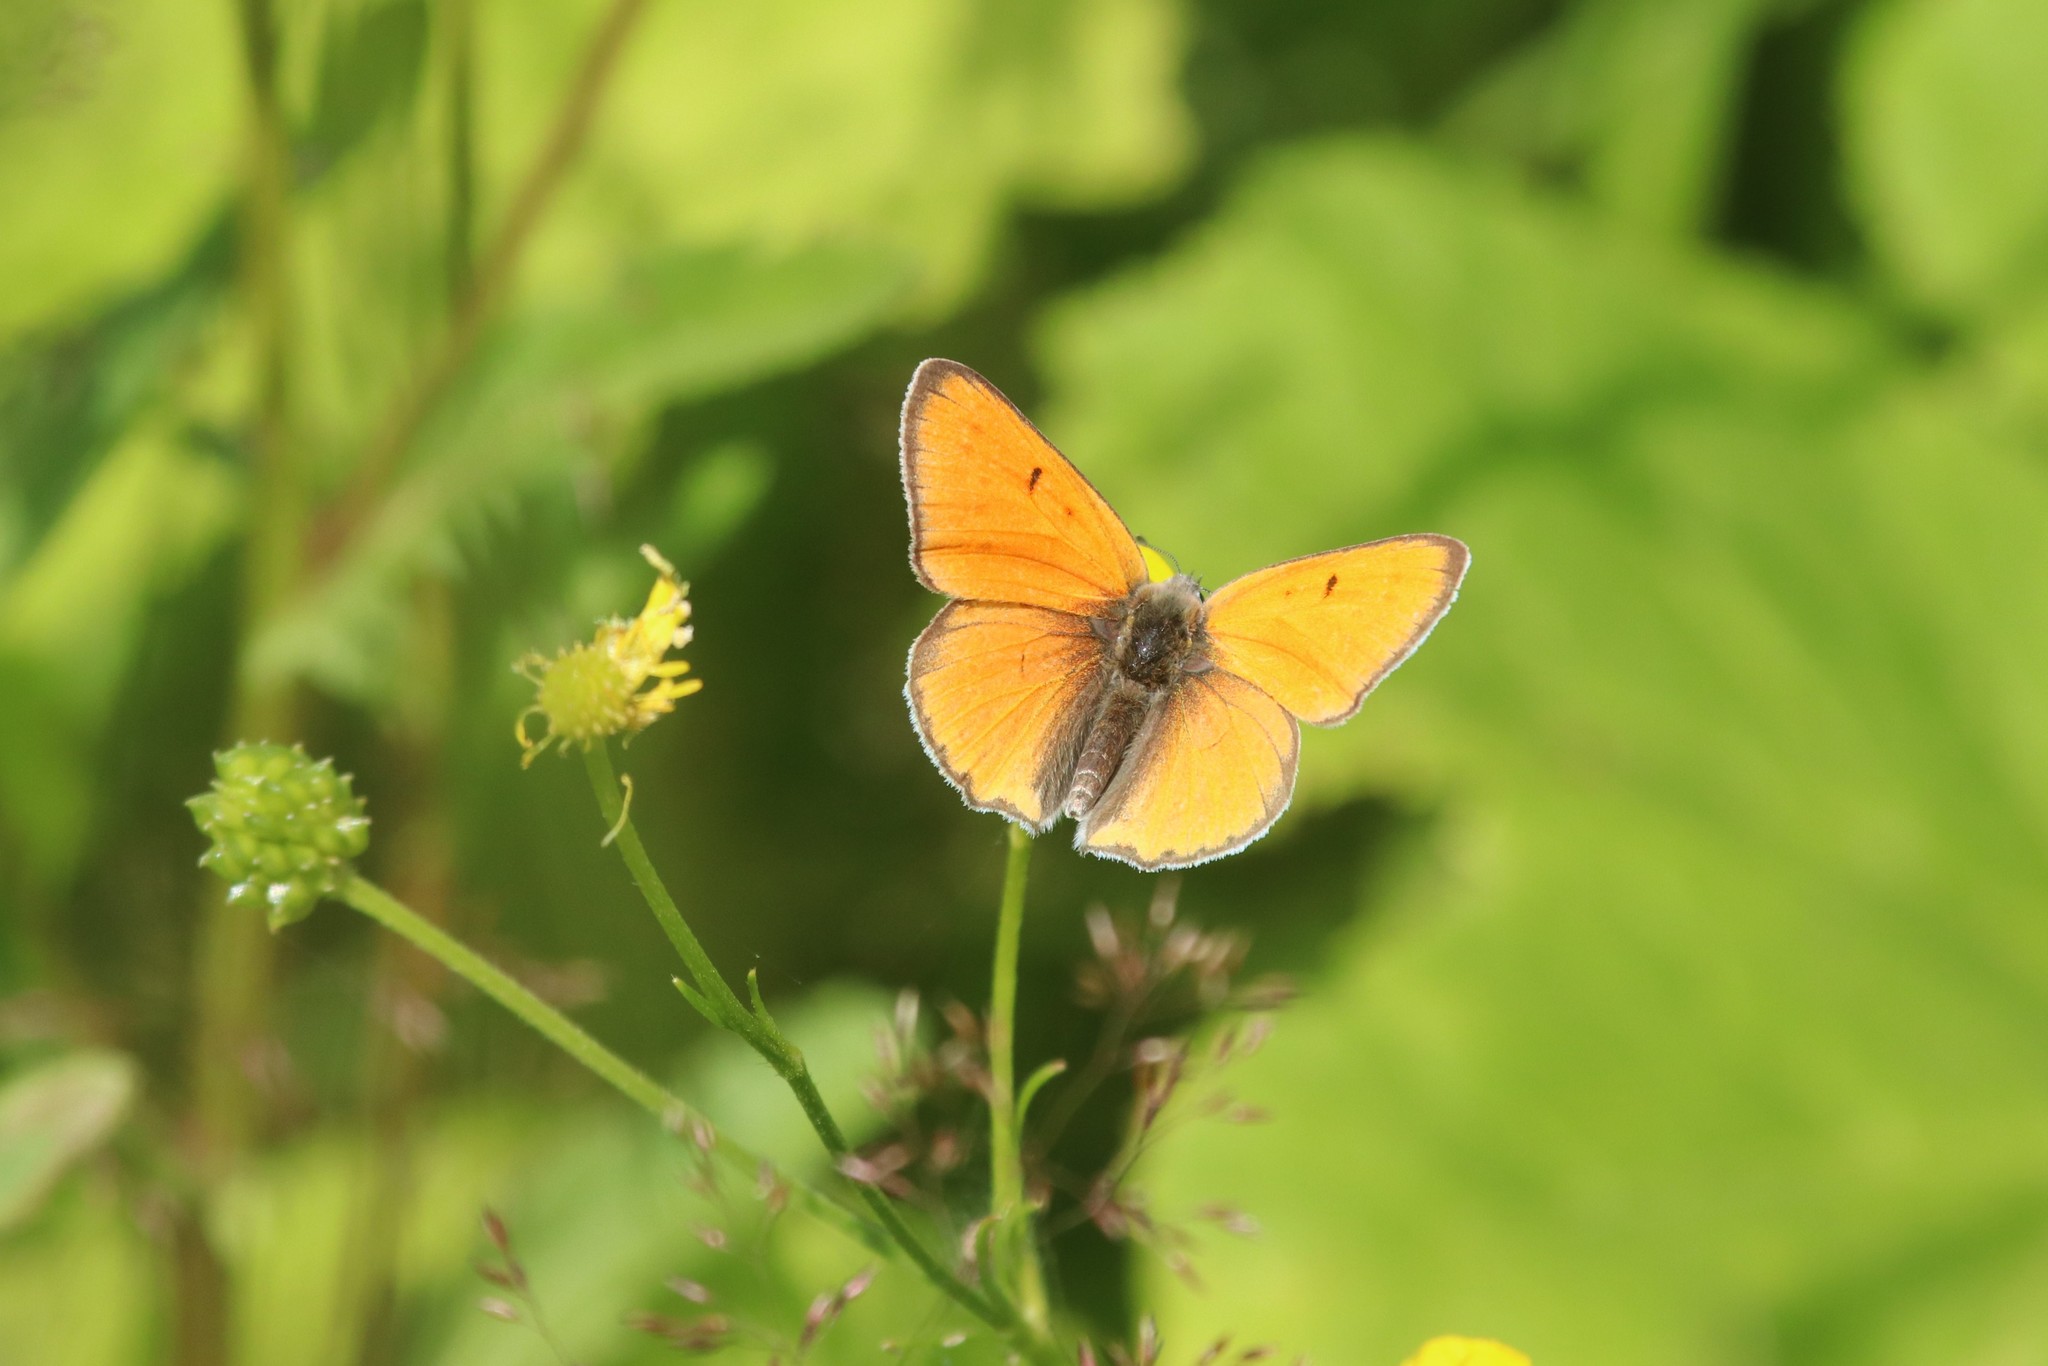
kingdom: Animalia
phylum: Arthropoda
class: Insecta
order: Lepidoptera
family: Lycaenidae
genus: Lycaena
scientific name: Lycaena dispar
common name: Large copper
